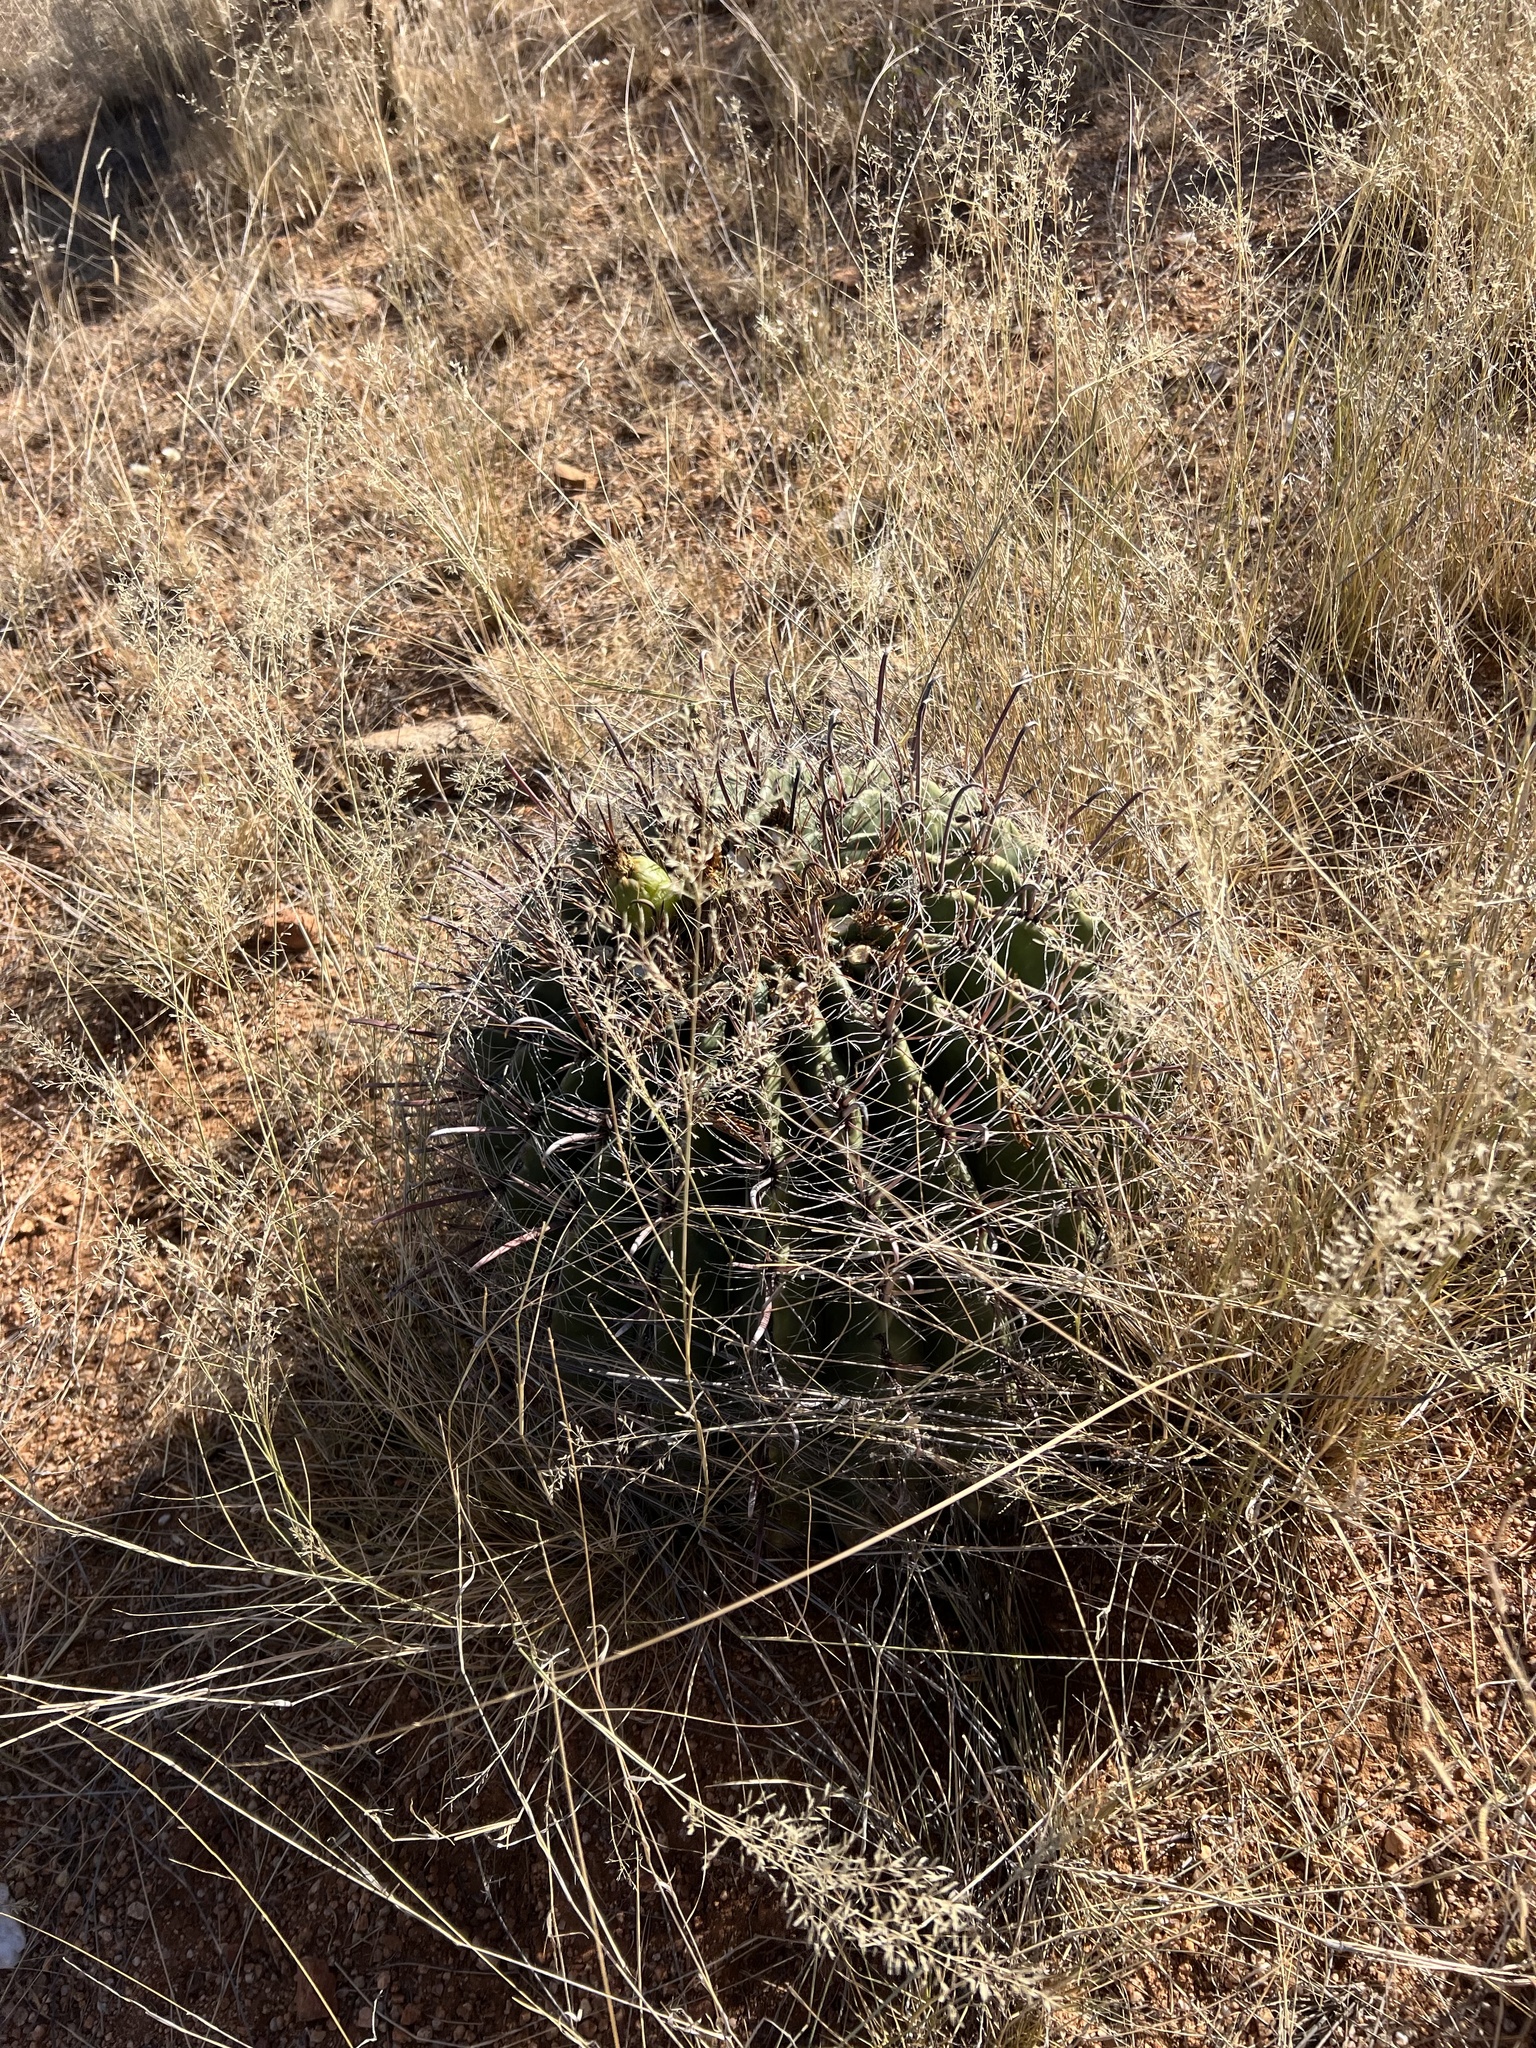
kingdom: Plantae
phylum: Tracheophyta
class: Magnoliopsida
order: Caryophyllales
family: Cactaceae
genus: Ferocactus
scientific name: Ferocactus wislizeni
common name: Candy barrel cactus
